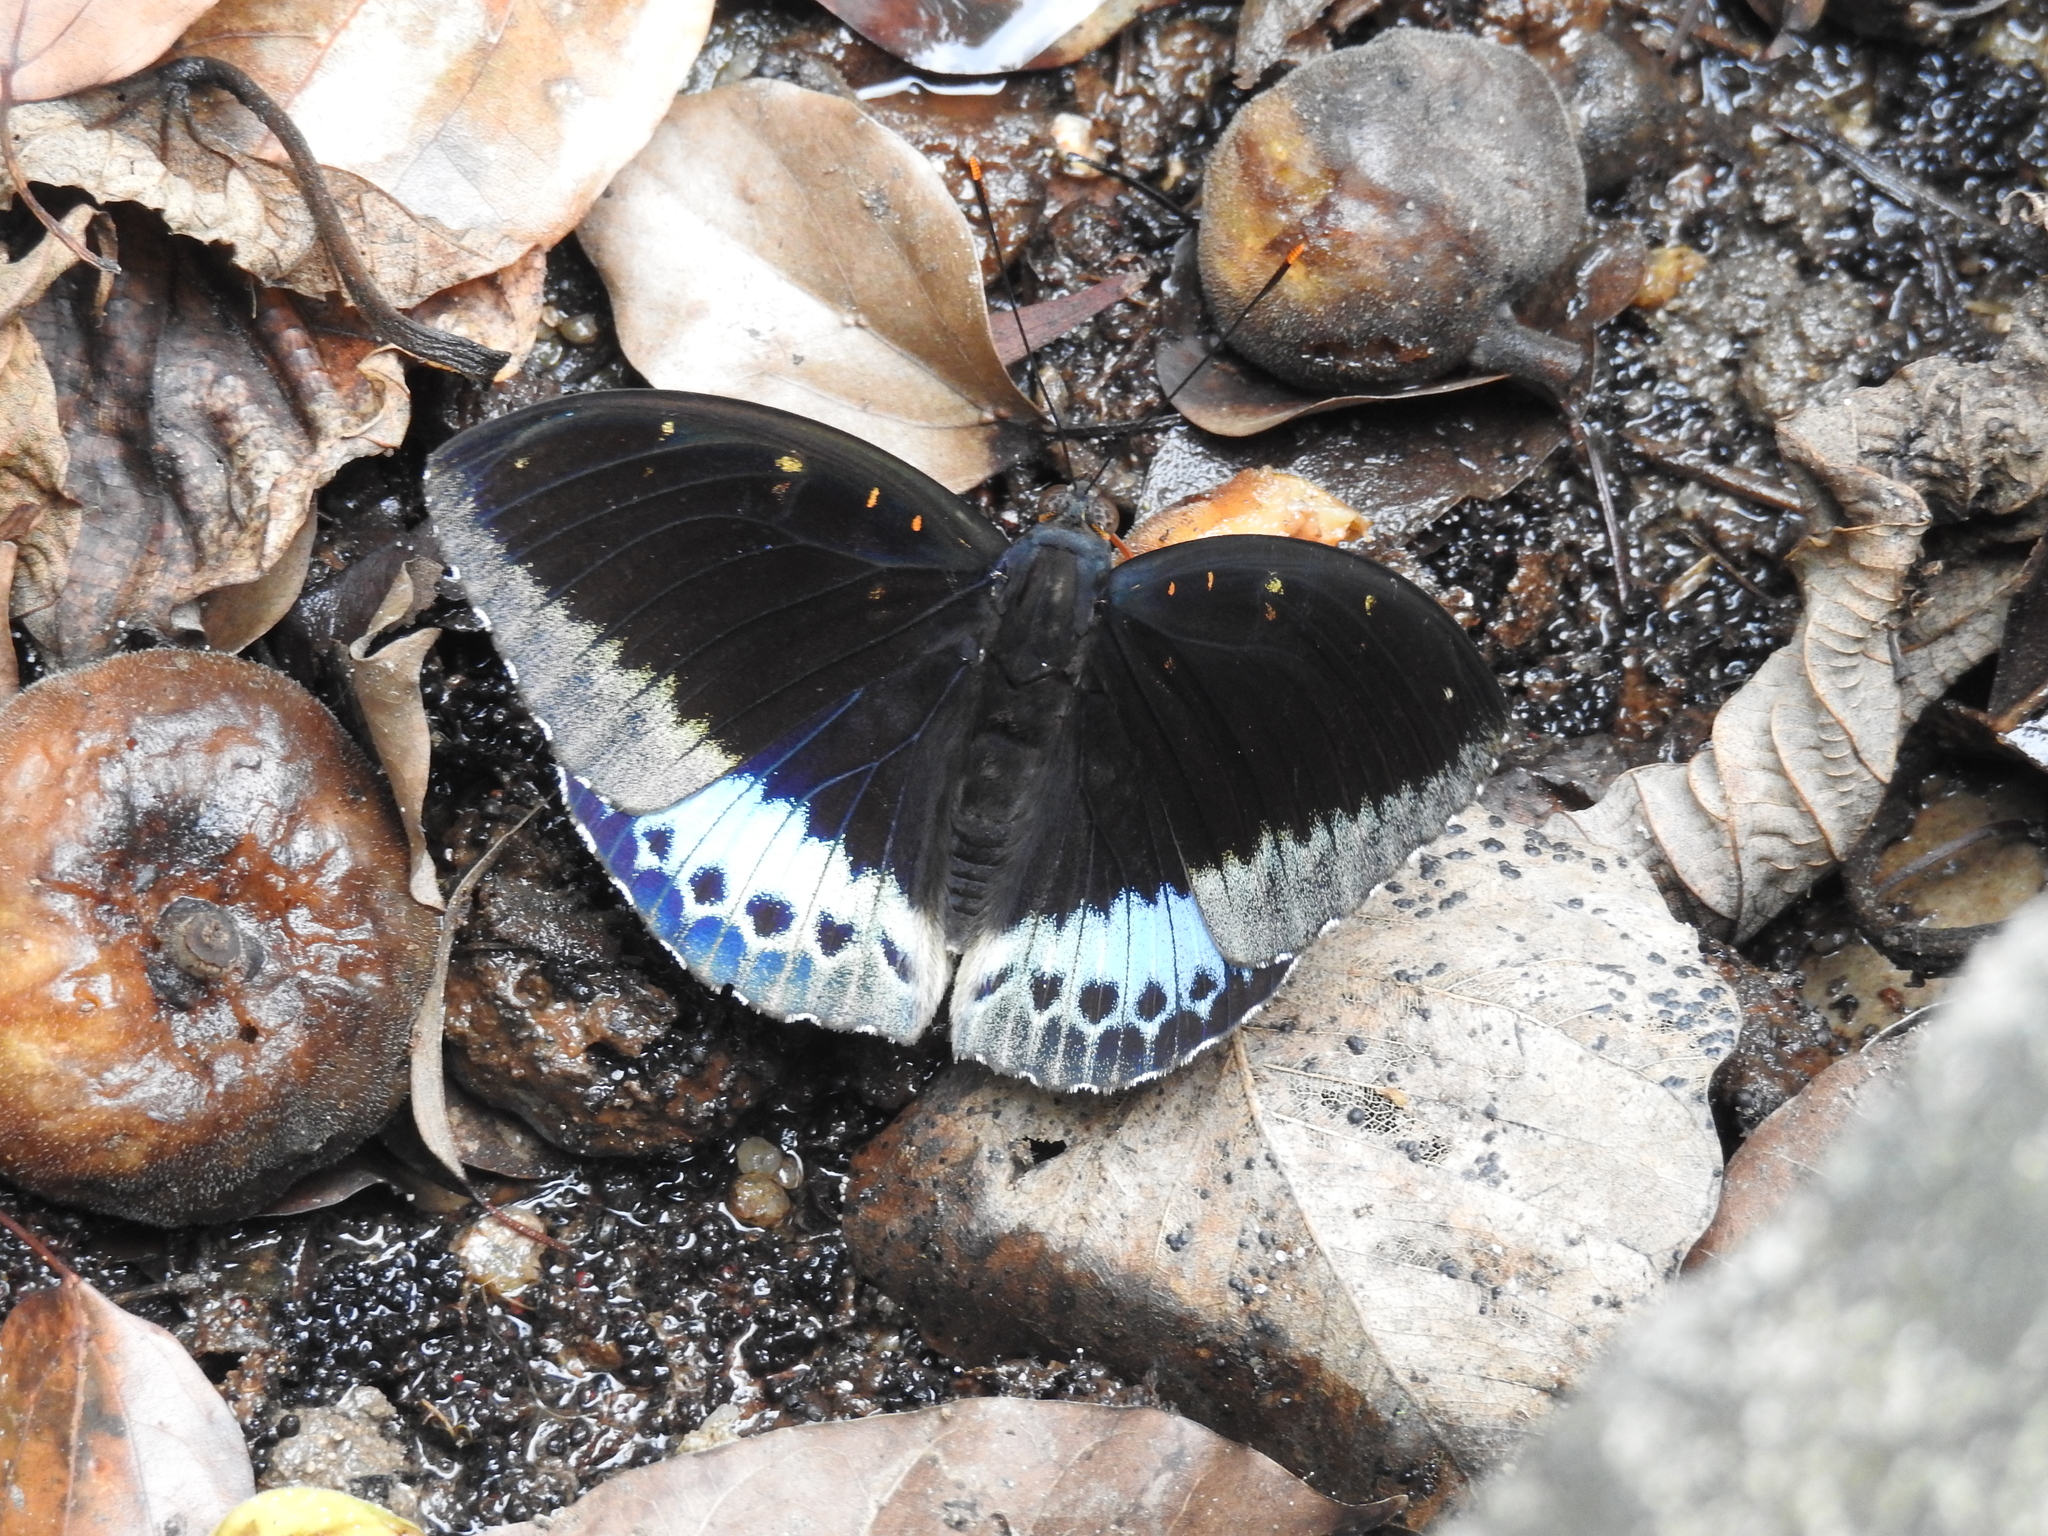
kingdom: Animalia
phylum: Arthropoda
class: Insecta
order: Lepidoptera
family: Nymphalidae
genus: Lexias
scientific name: Lexias pardalis
